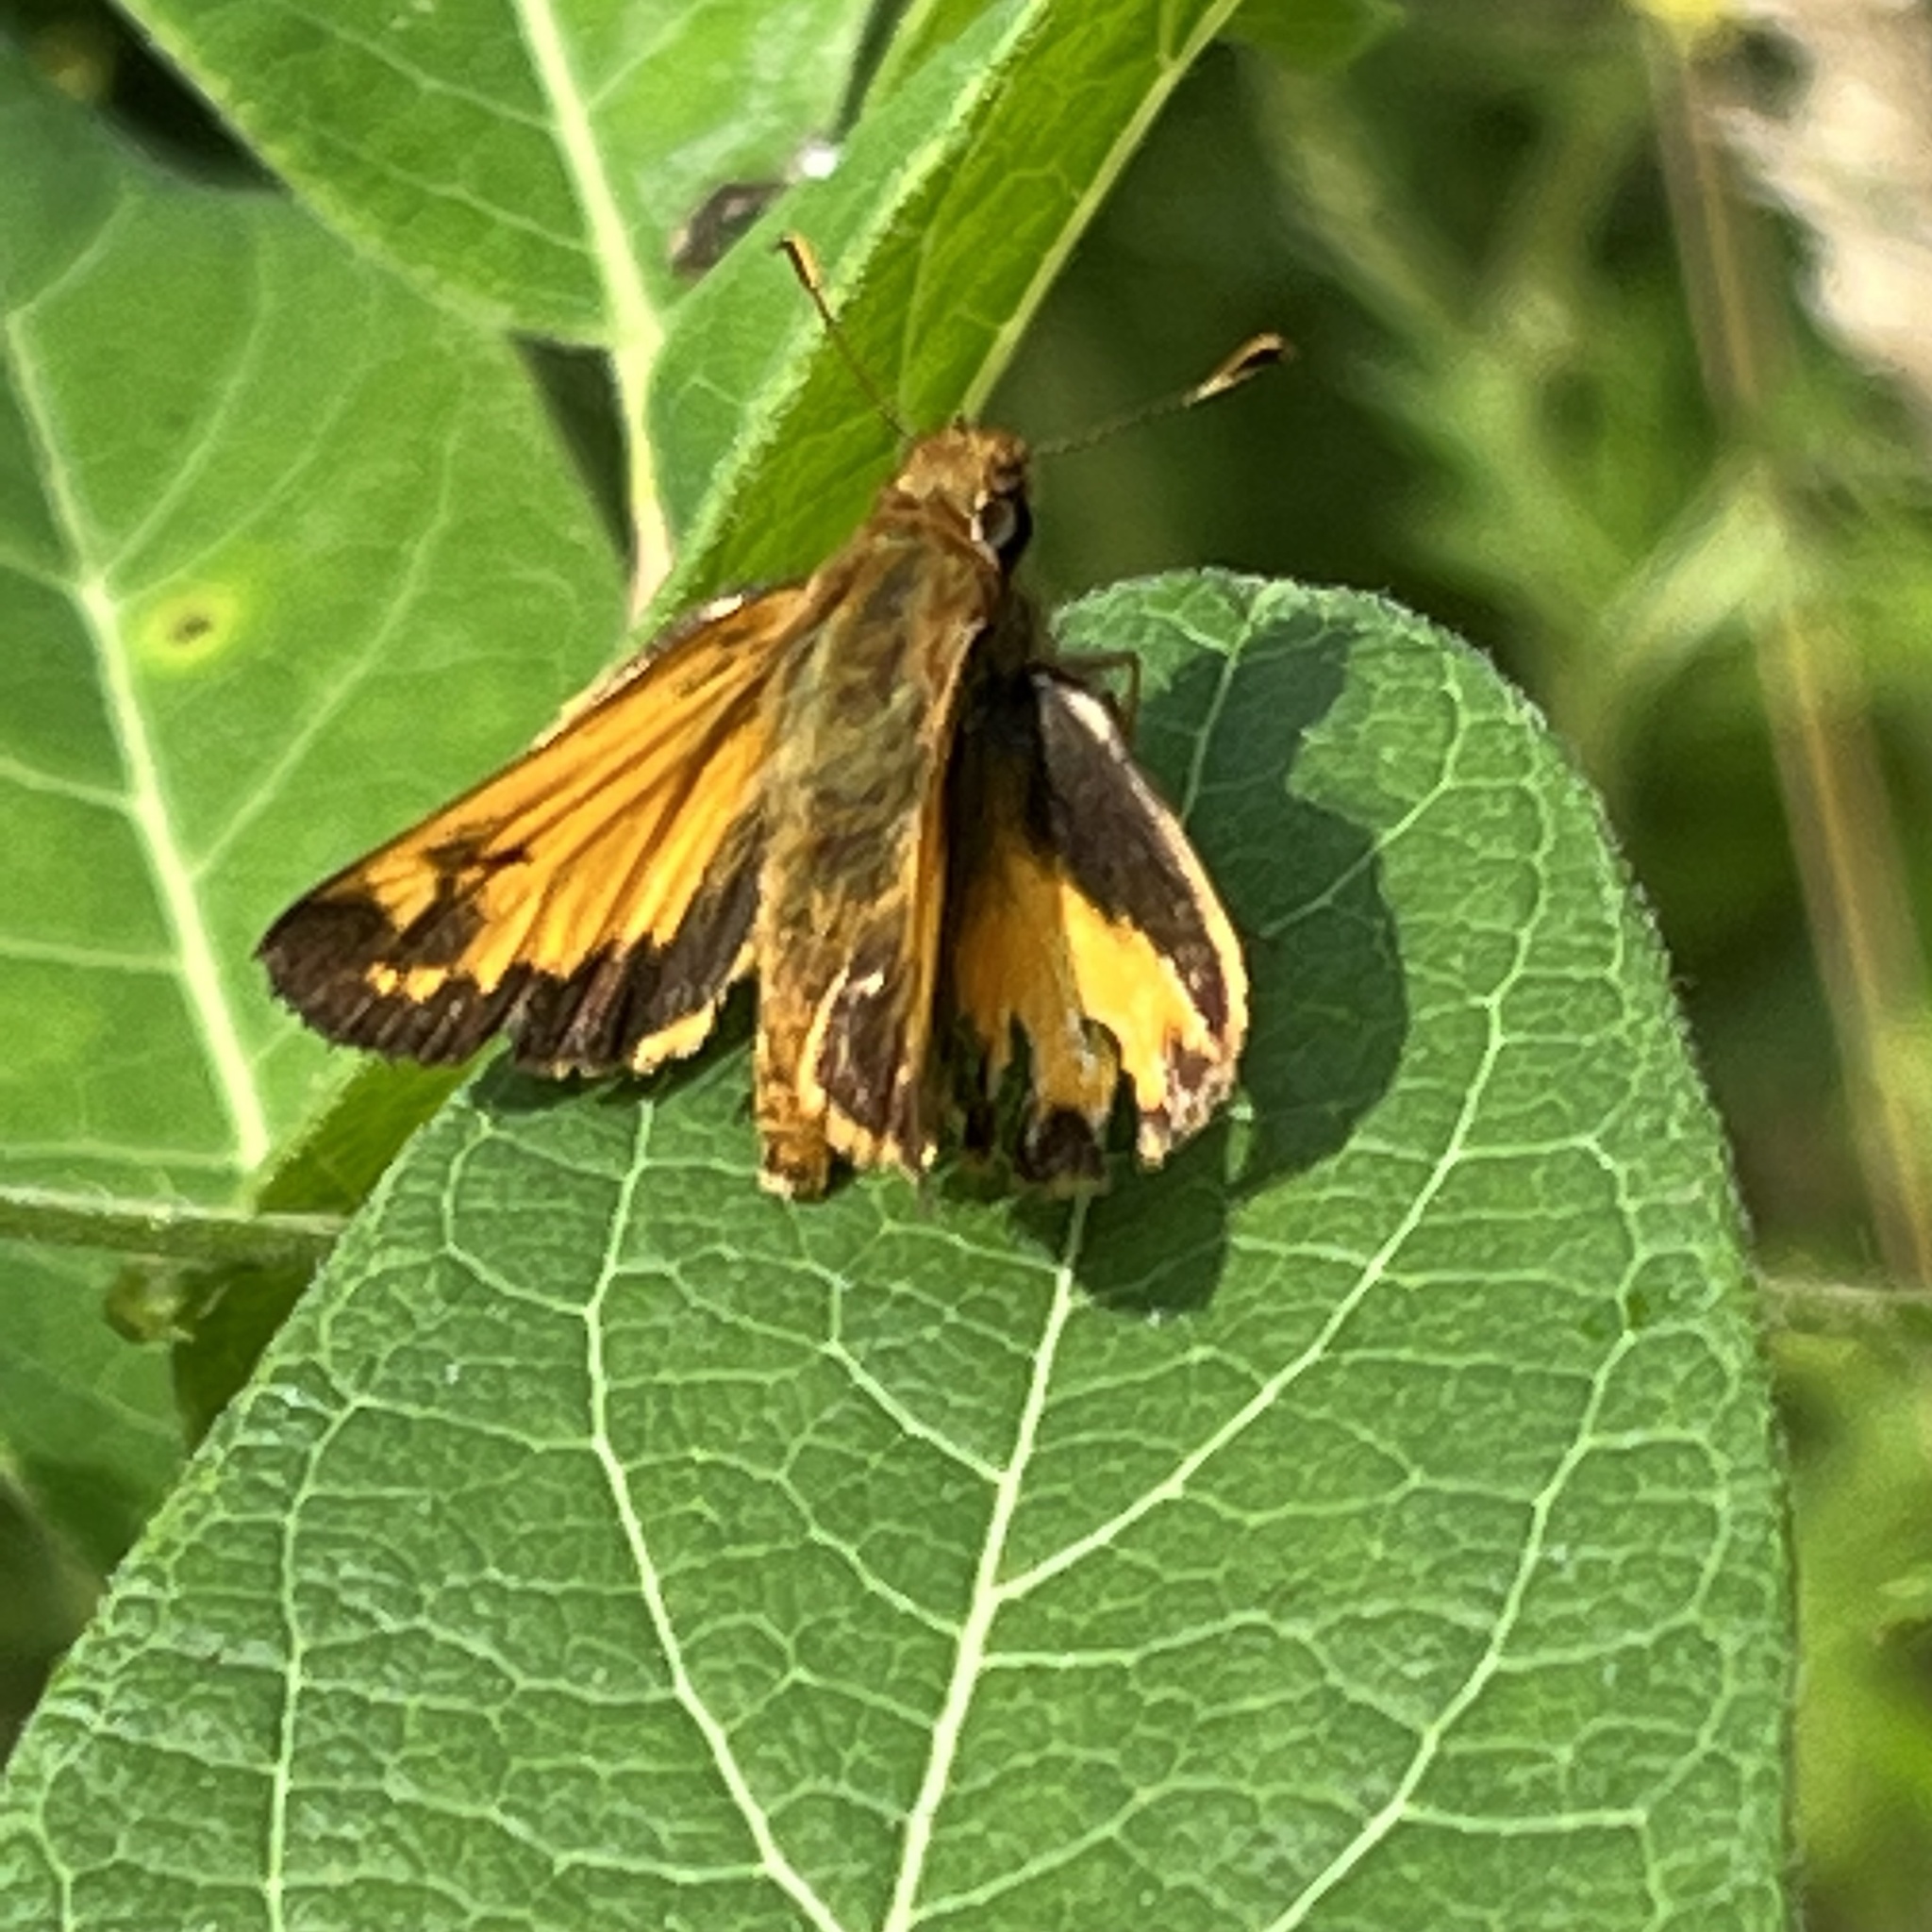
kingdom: Animalia
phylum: Arthropoda
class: Insecta
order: Lepidoptera
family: Hesperiidae
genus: Lon
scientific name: Lon zabulon
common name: Zabulon skipper
